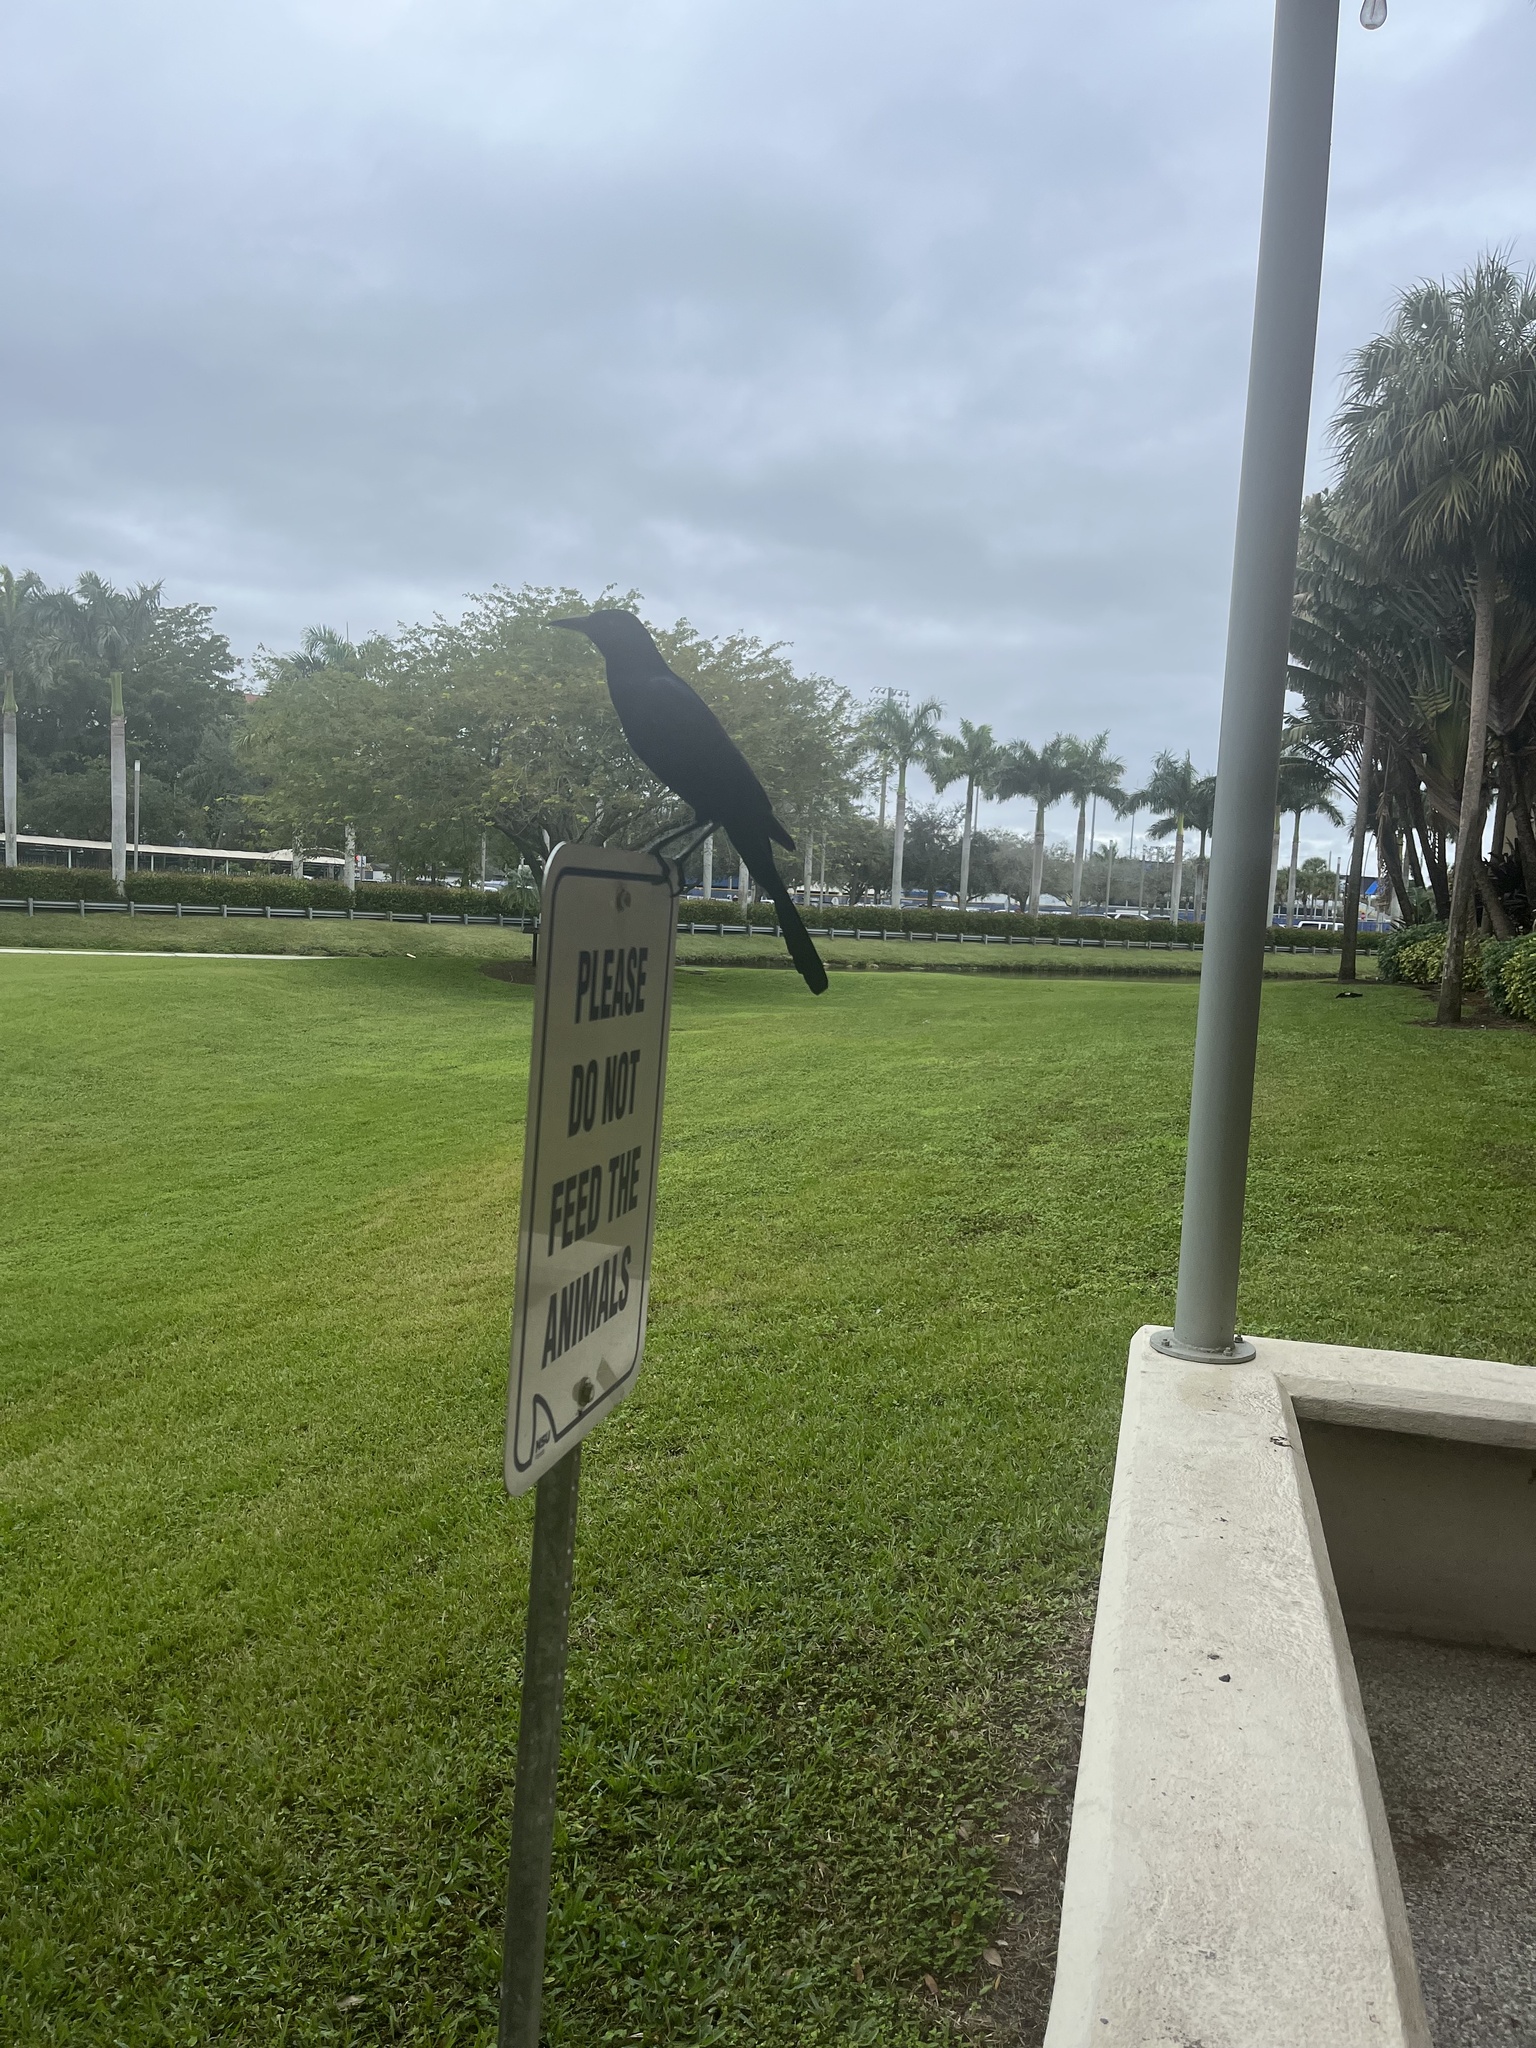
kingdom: Animalia
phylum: Chordata
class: Aves
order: Passeriformes
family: Icteridae
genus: Quiscalus
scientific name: Quiscalus major
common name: Boat-tailed grackle
